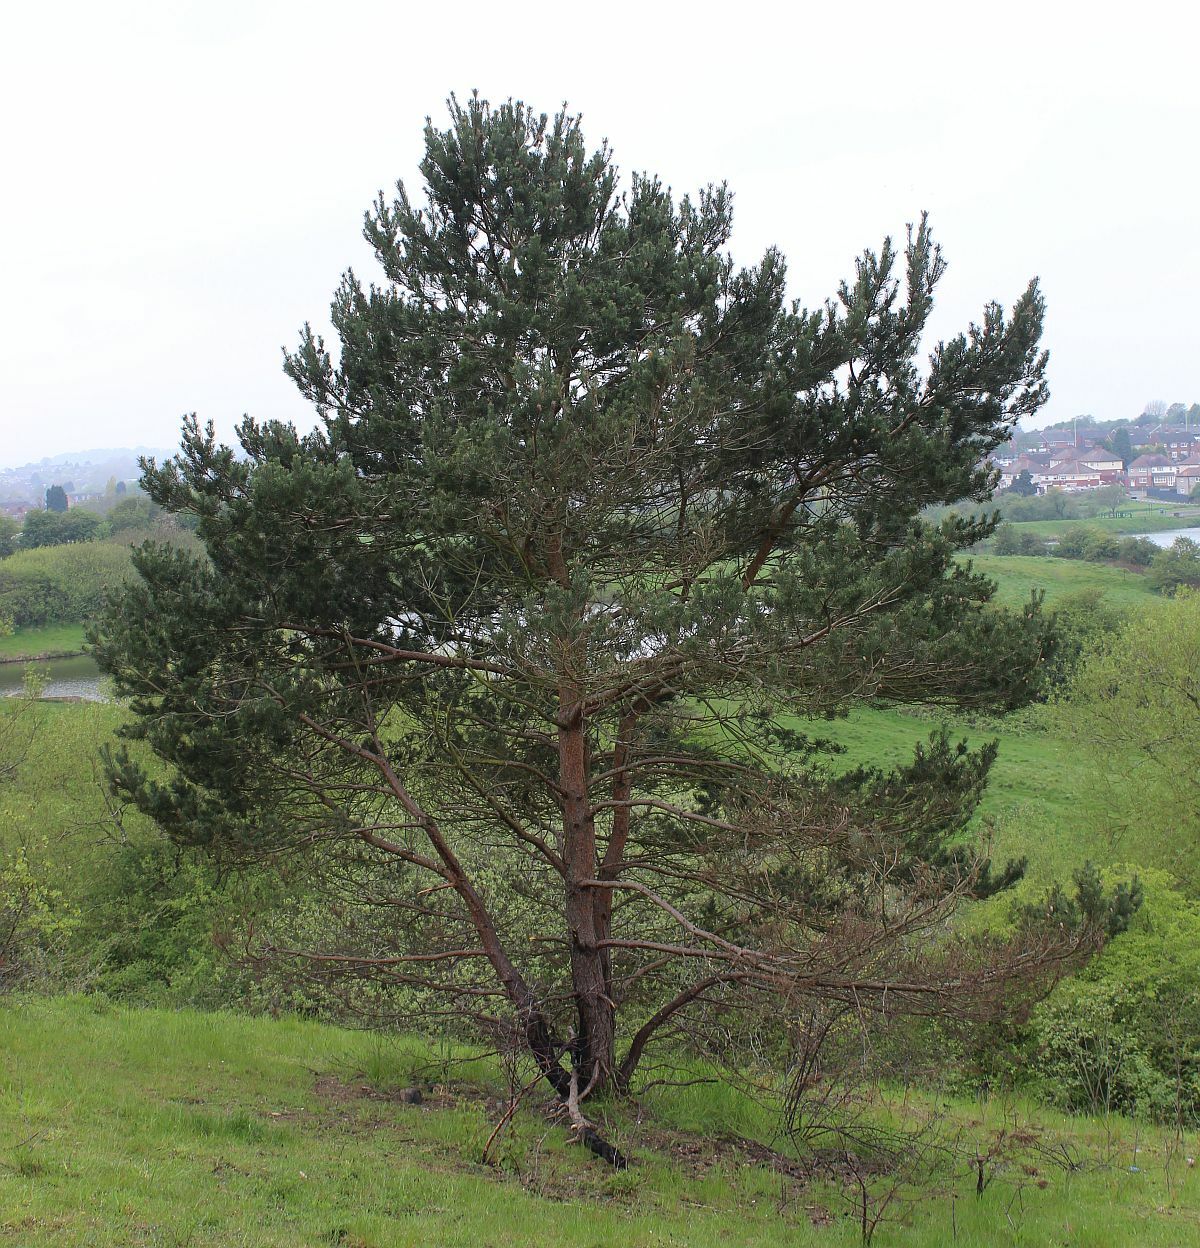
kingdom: Plantae
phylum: Tracheophyta
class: Pinopsida
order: Pinales
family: Pinaceae
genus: Pinus
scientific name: Pinus sylvestris
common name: Scots pine
